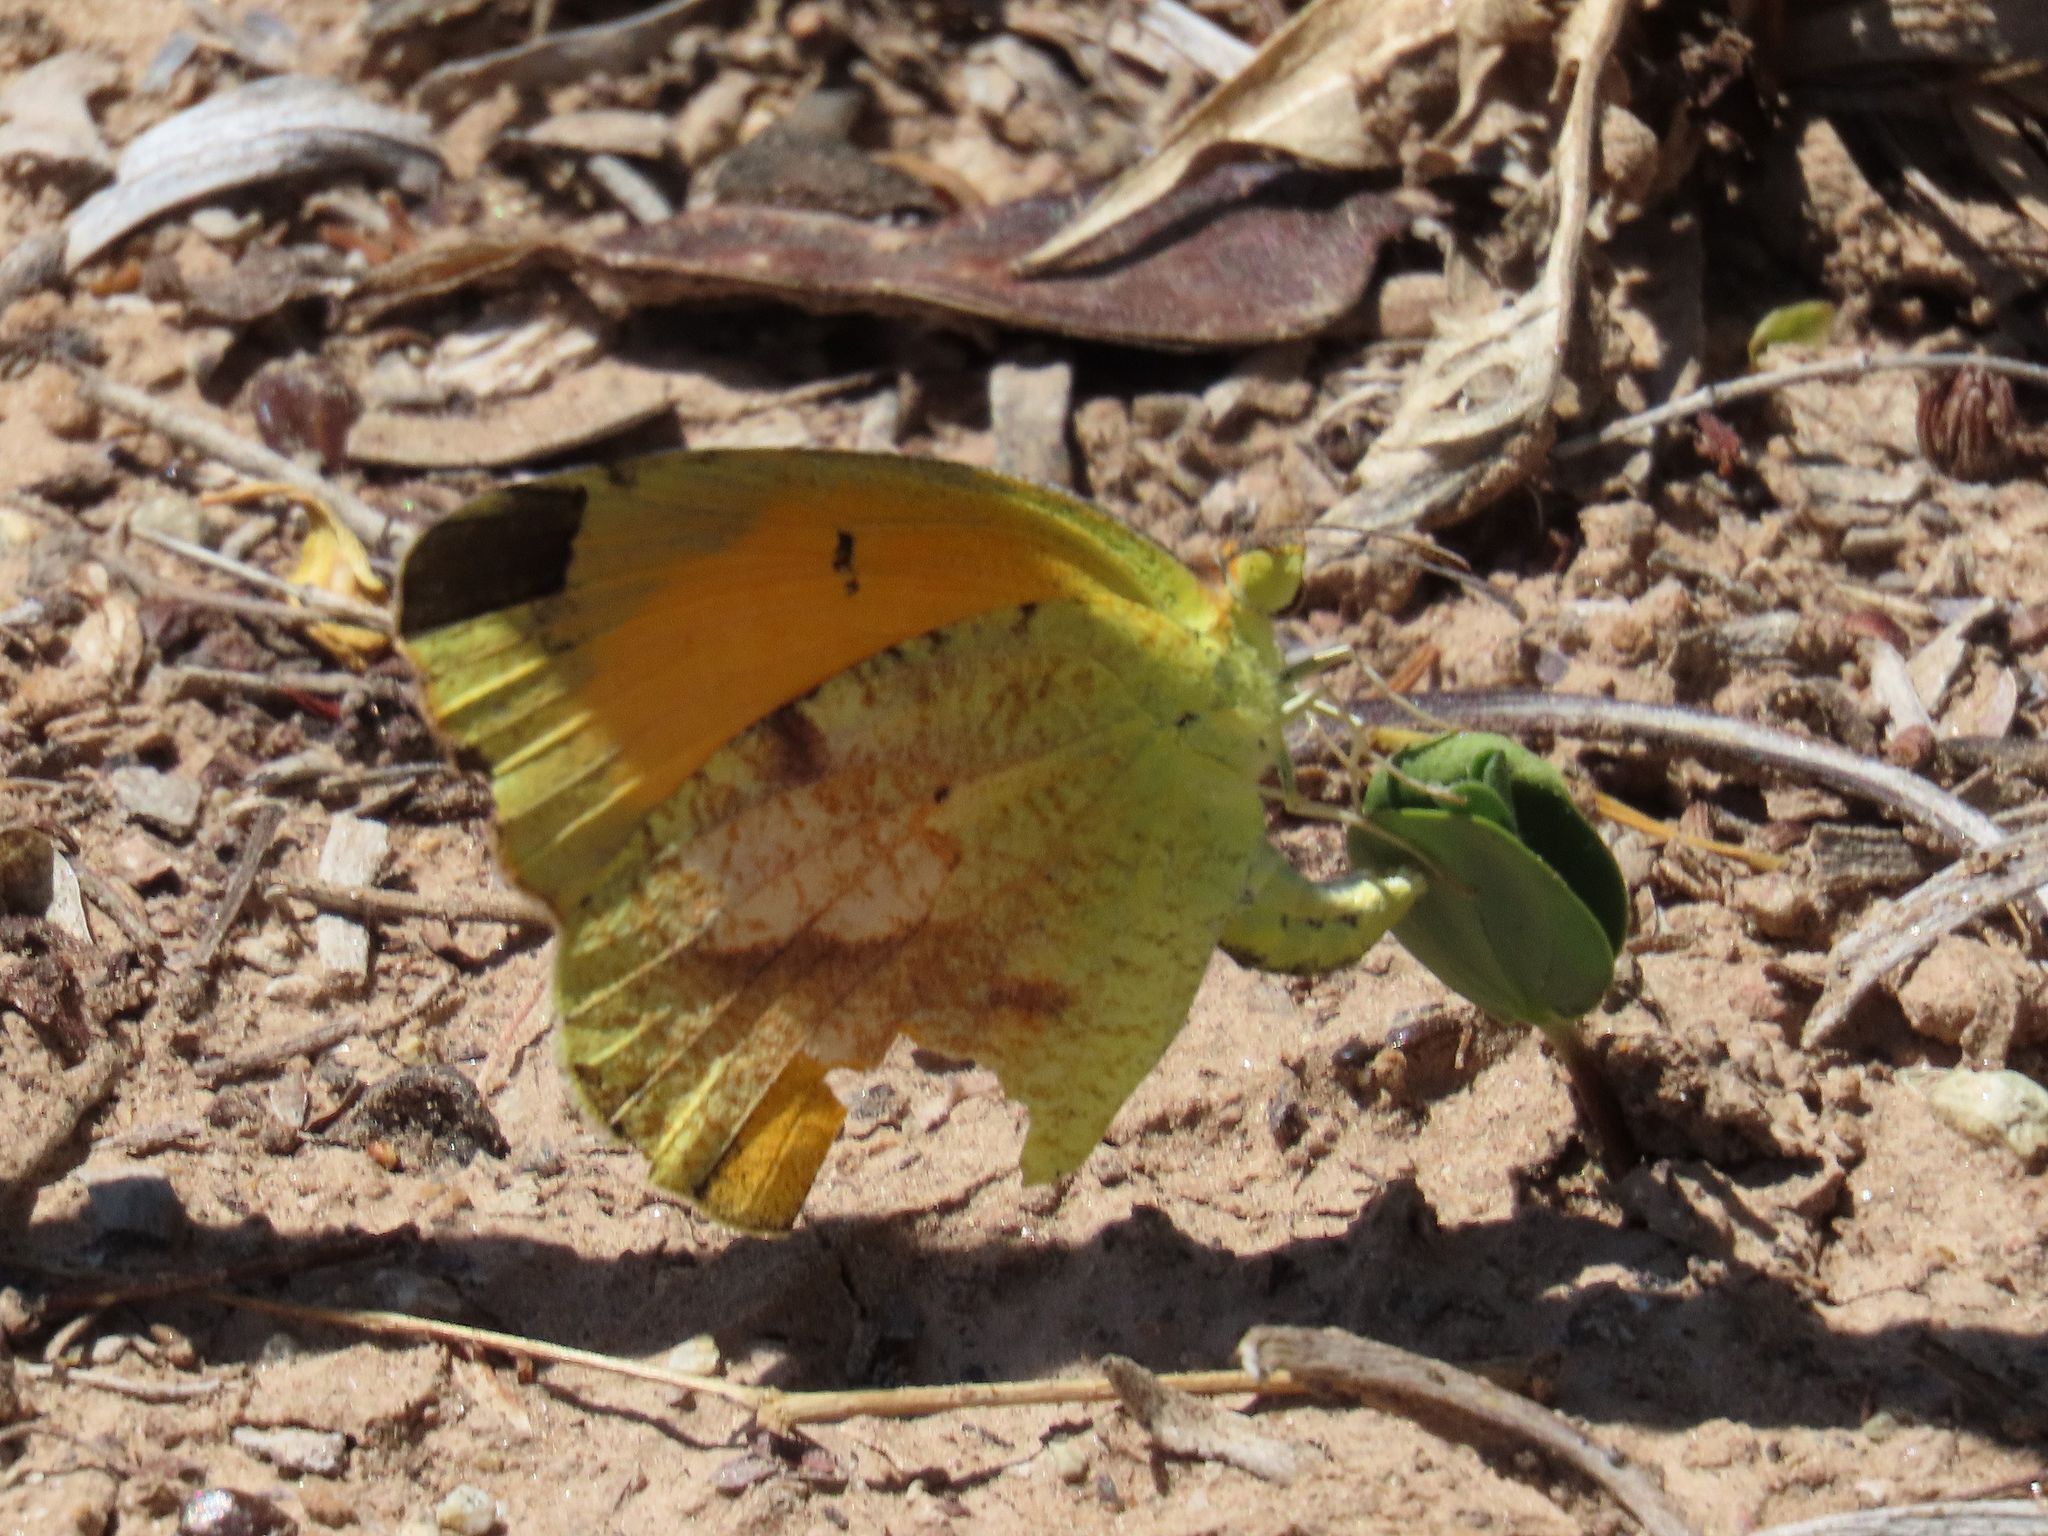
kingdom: Animalia
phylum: Arthropoda
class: Insecta
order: Lepidoptera
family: Pieridae
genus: Abaeis
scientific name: Abaeis nicippe
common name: Sleepy orange
